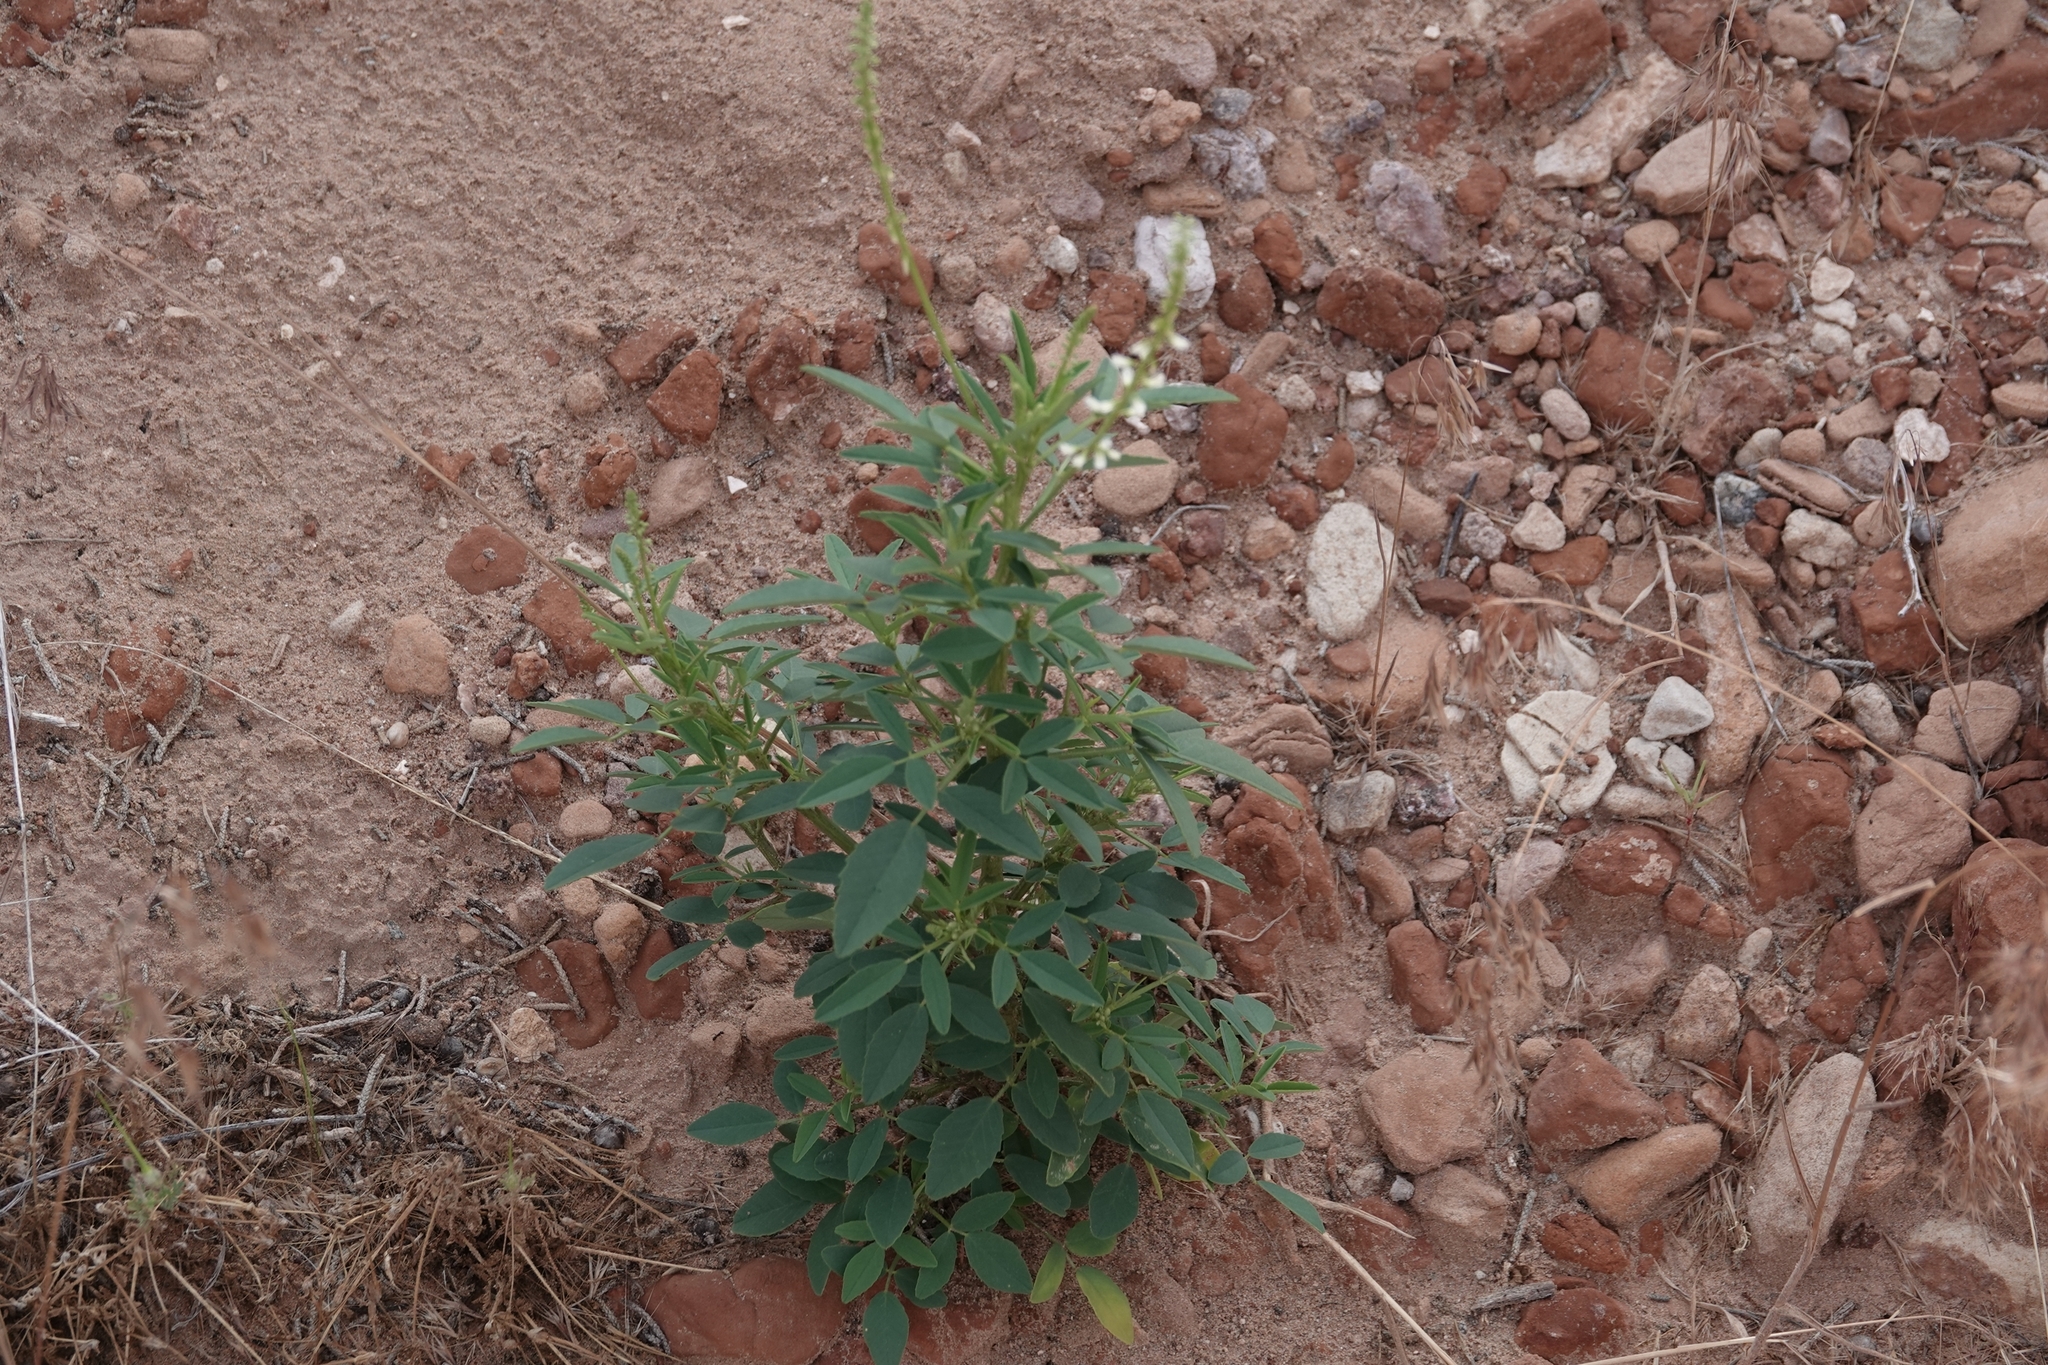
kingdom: Plantae
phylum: Tracheophyta
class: Magnoliopsida
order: Fabales
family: Fabaceae
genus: Melilotus
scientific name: Melilotus albus
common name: White melilot
